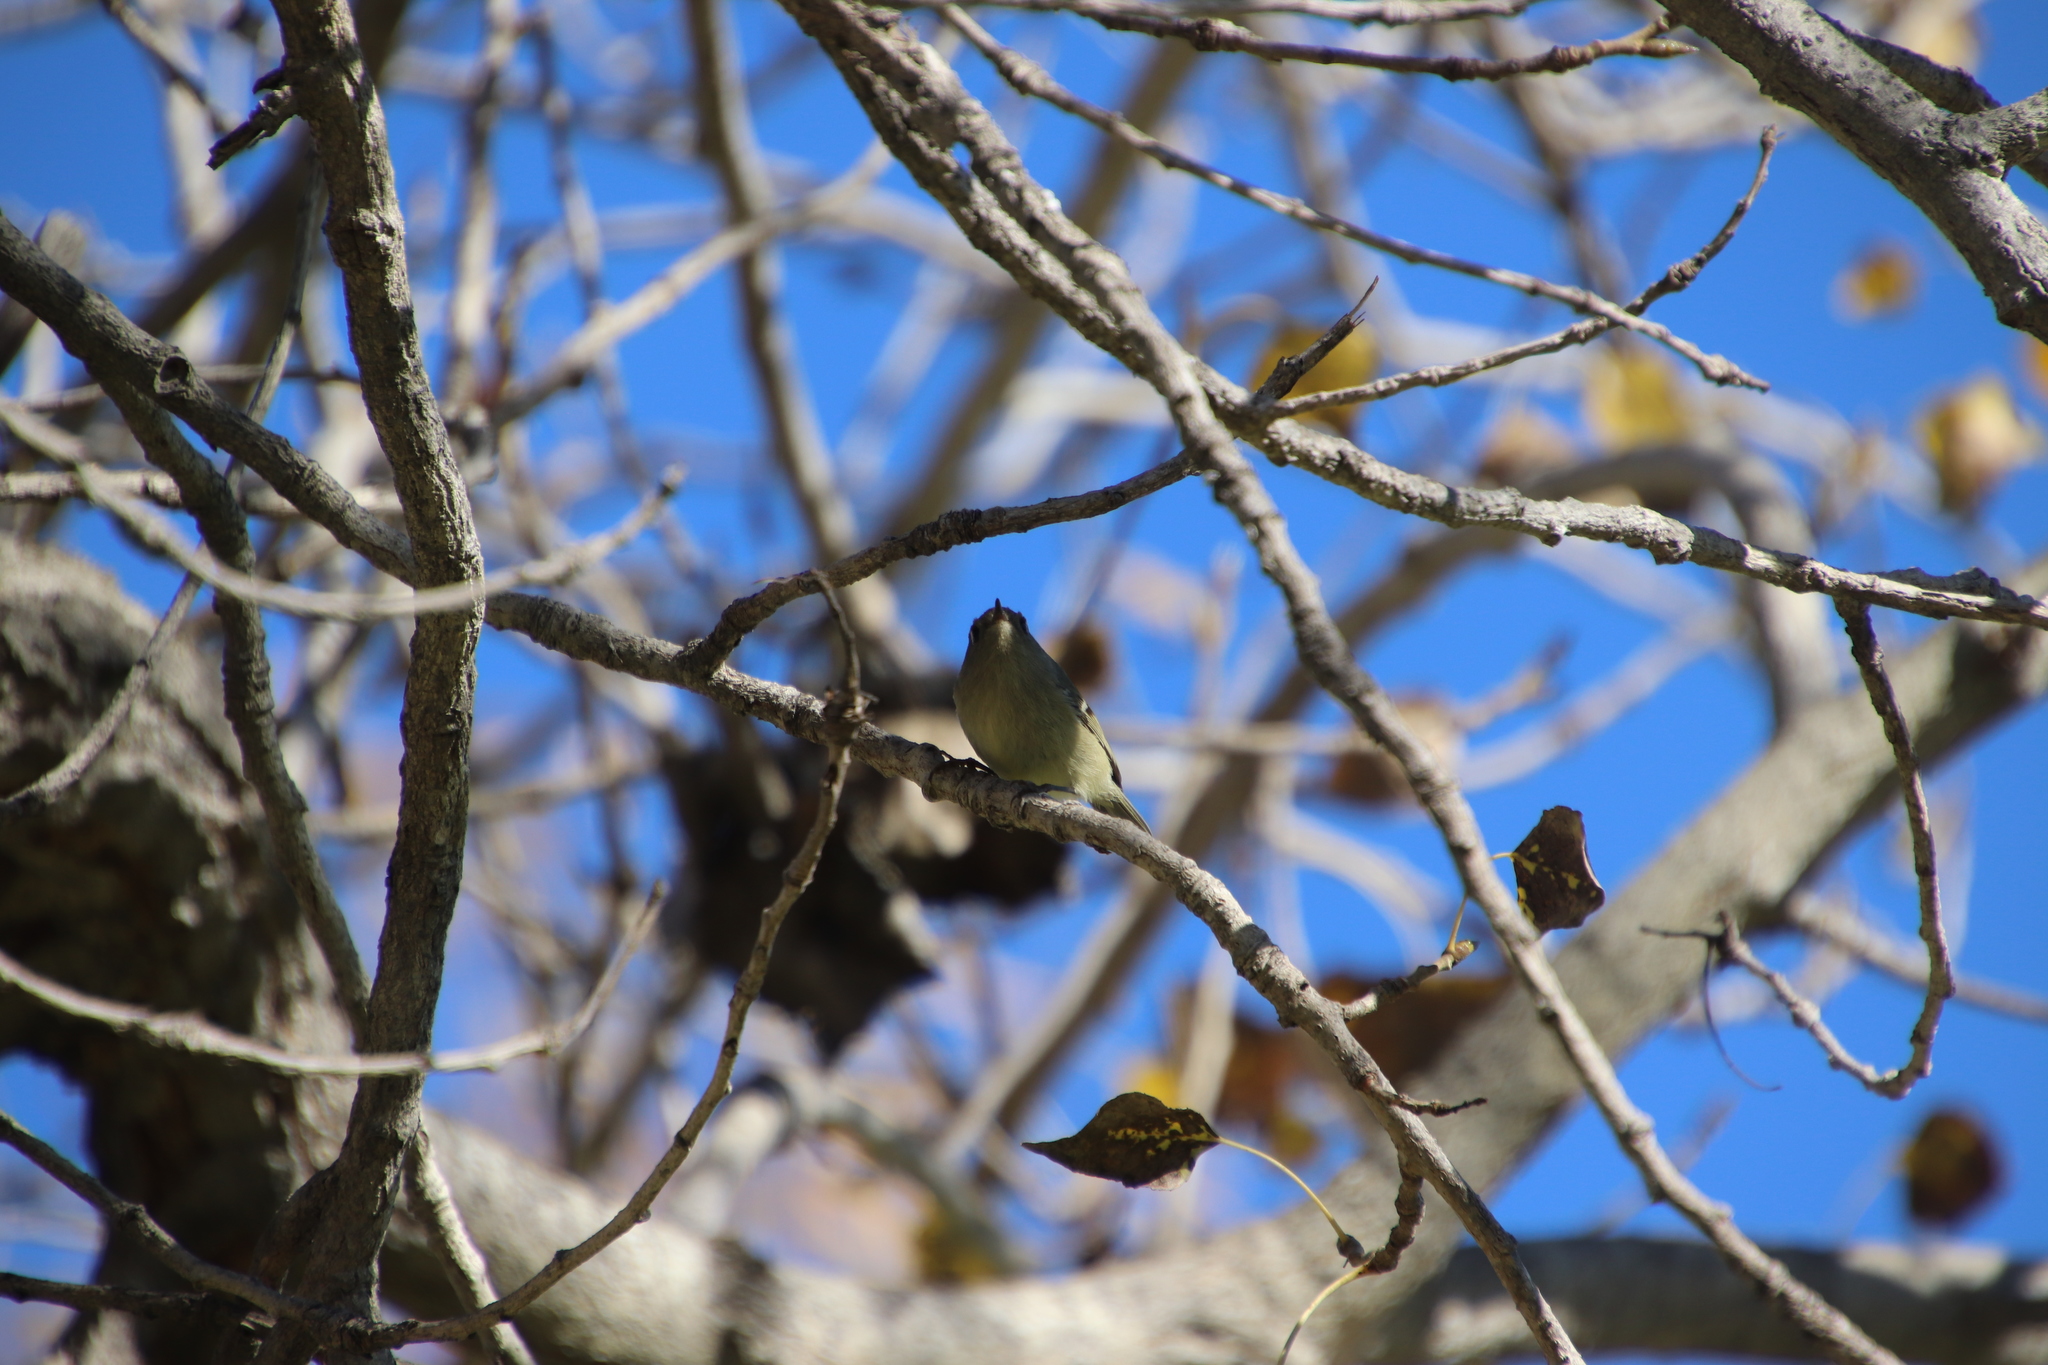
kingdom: Animalia
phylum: Chordata
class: Aves
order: Passeriformes
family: Regulidae
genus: Regulus
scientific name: Regulus calendula
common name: Ruby-crowned kinglet
